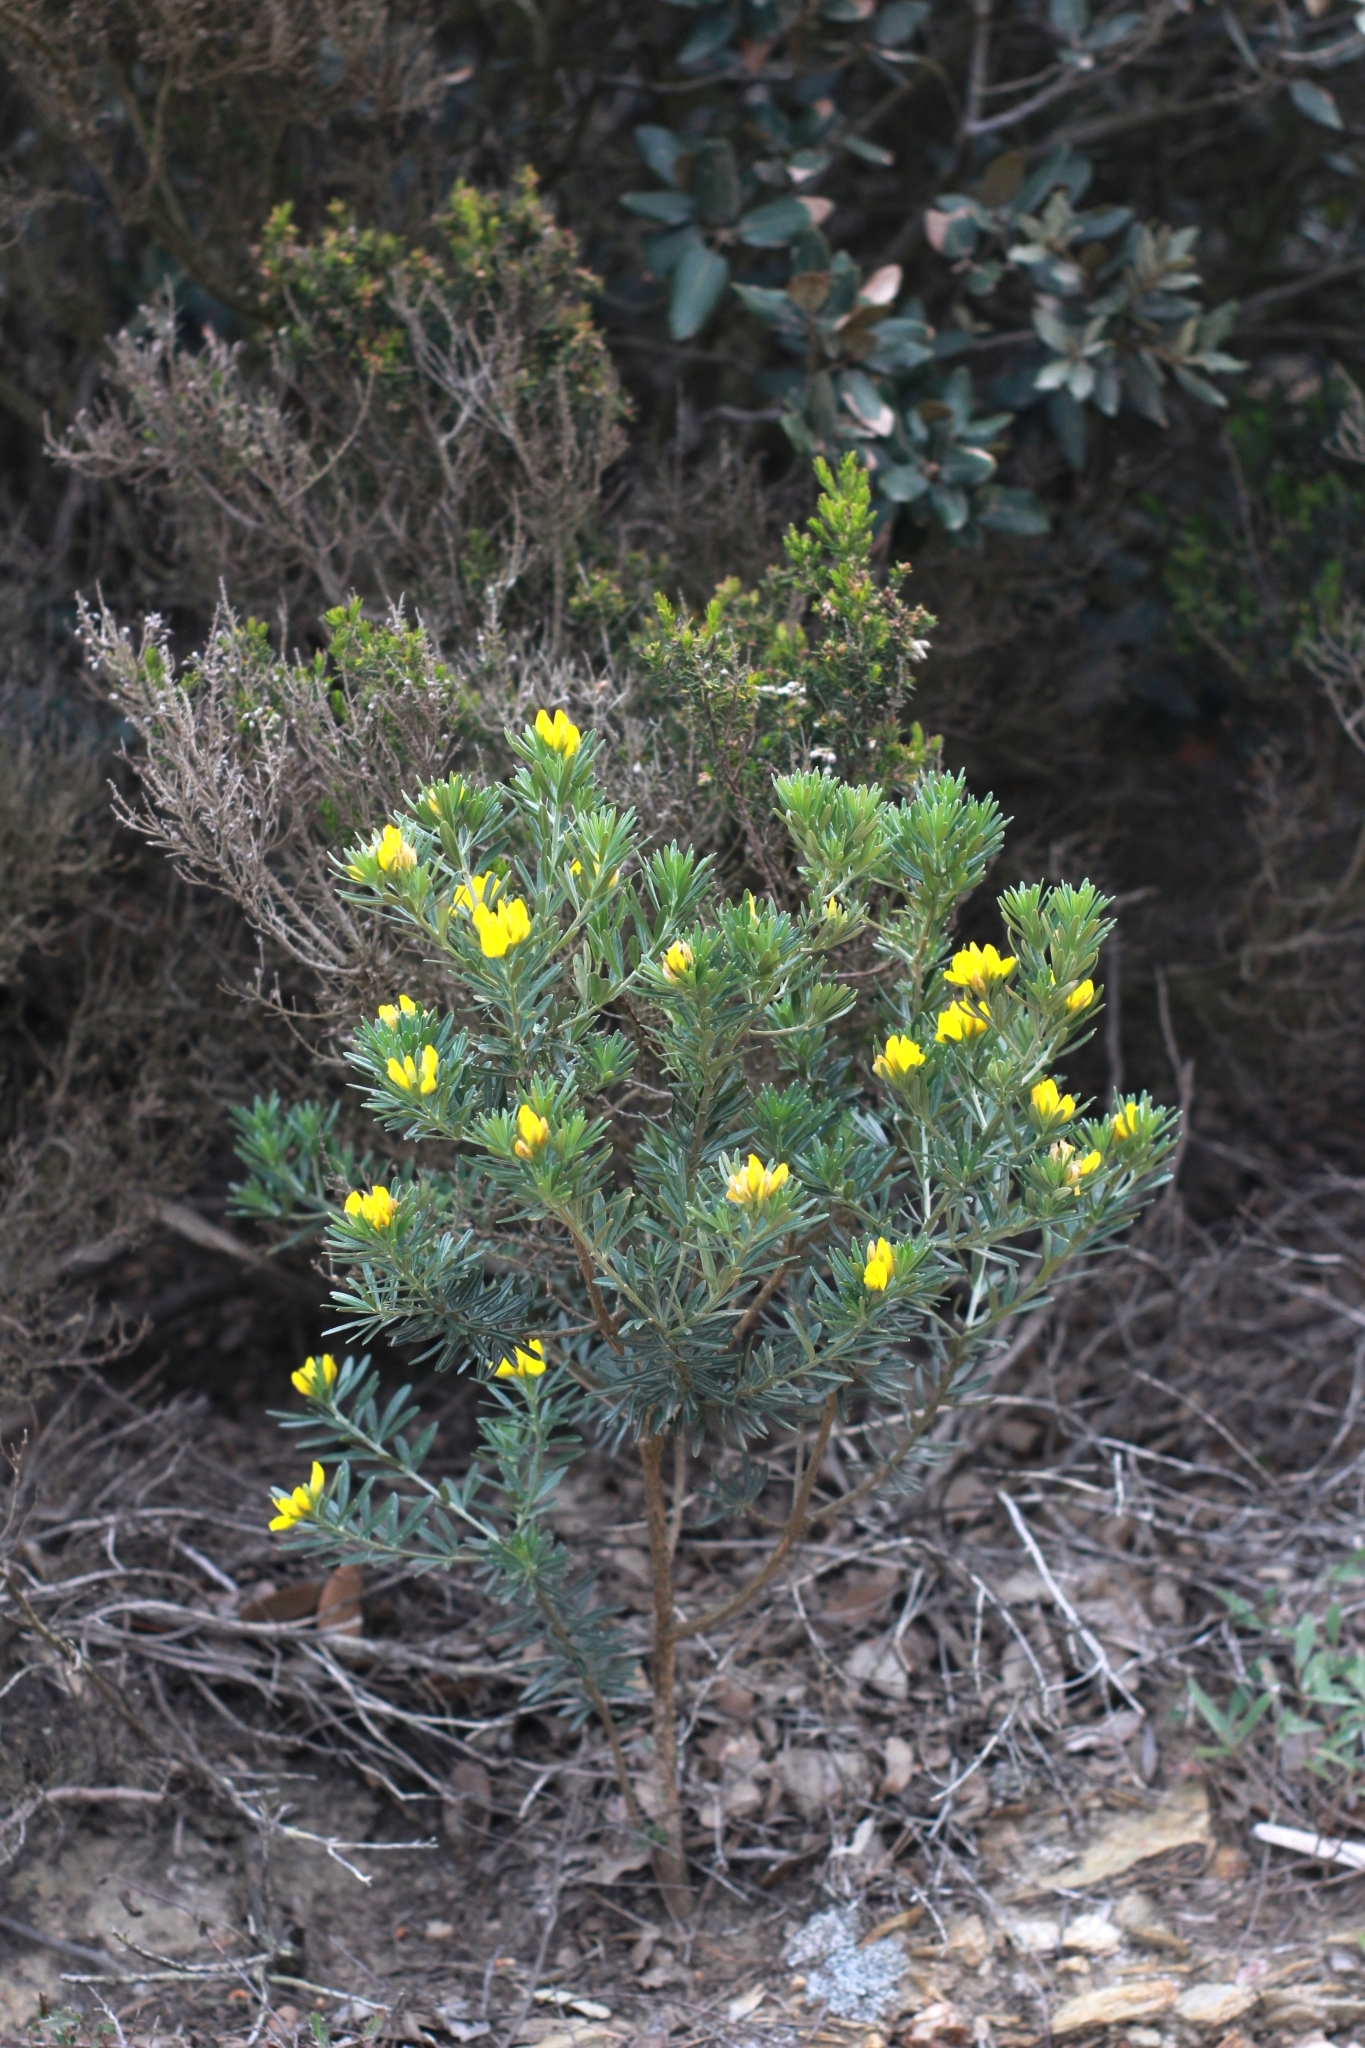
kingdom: Plantae
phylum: Tracheophyta
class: Magnoliopsida
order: Fabales
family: Fabaceae
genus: Genista
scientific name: Genista linifolia
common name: Mediterranean broom
